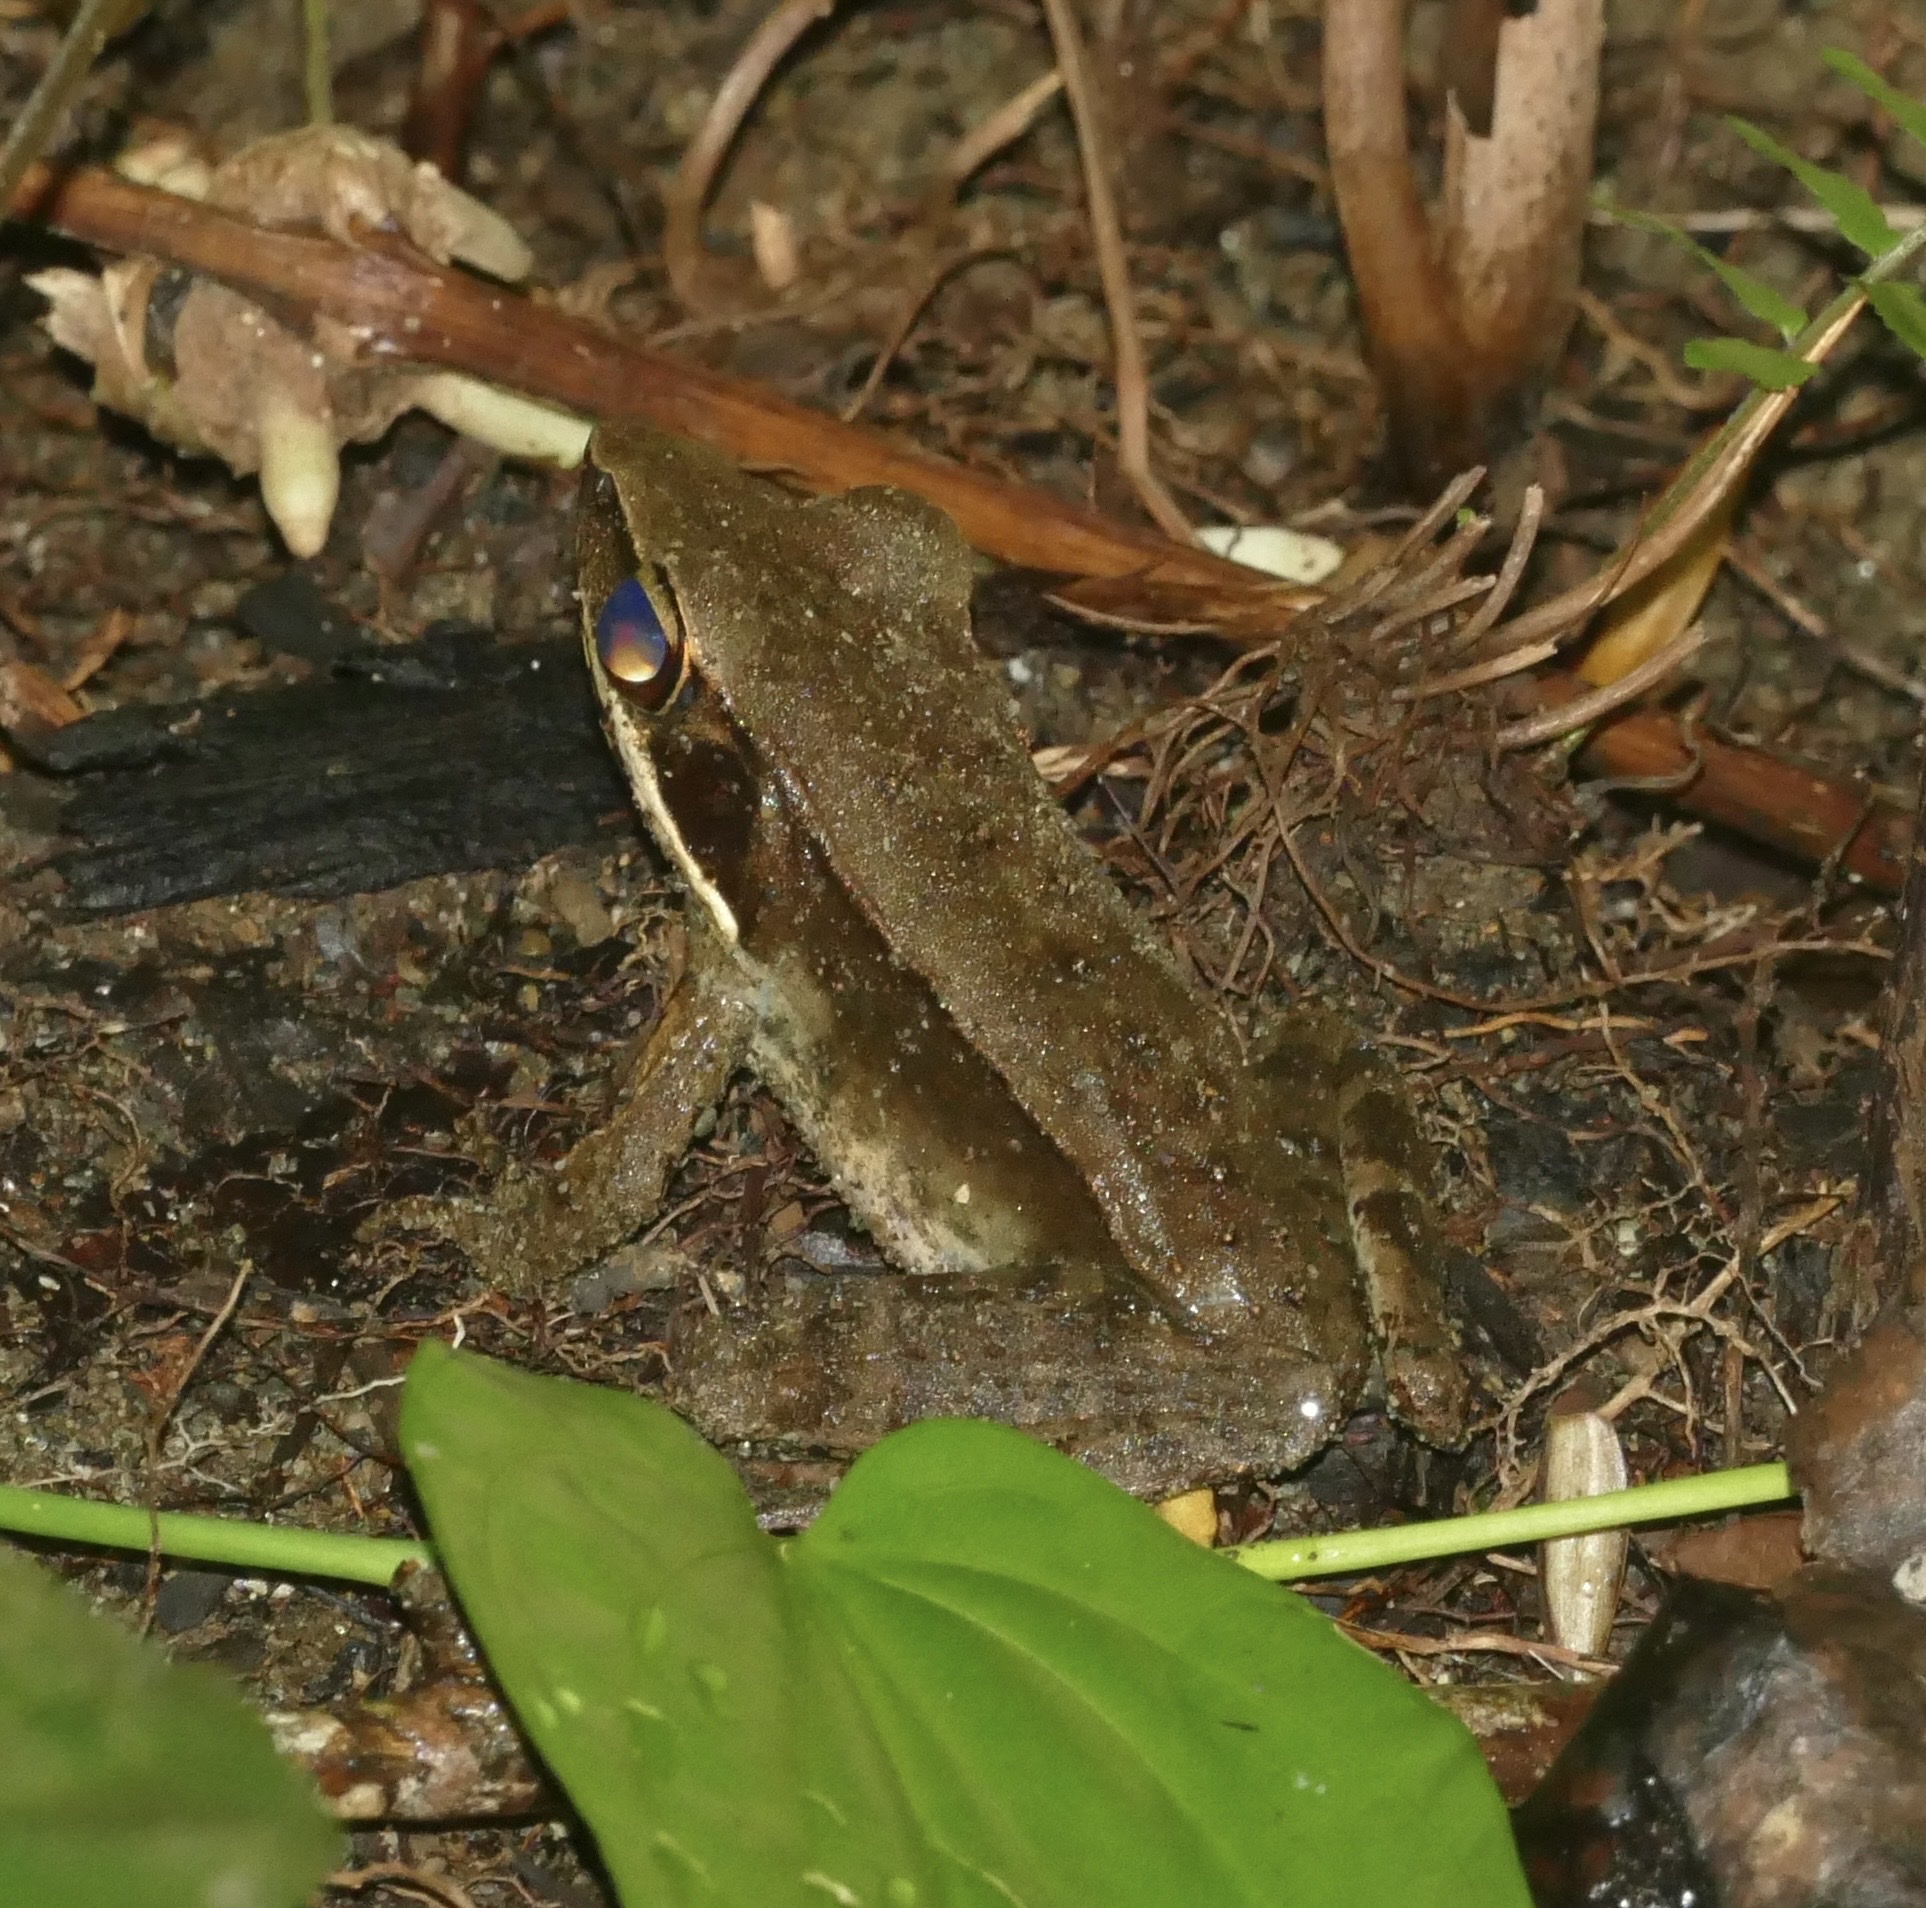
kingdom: Animalia
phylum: Chordata
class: Amphibia
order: Anura
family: Ranidae
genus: Papurana
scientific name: Papurana daemeli
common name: Arhem rana
